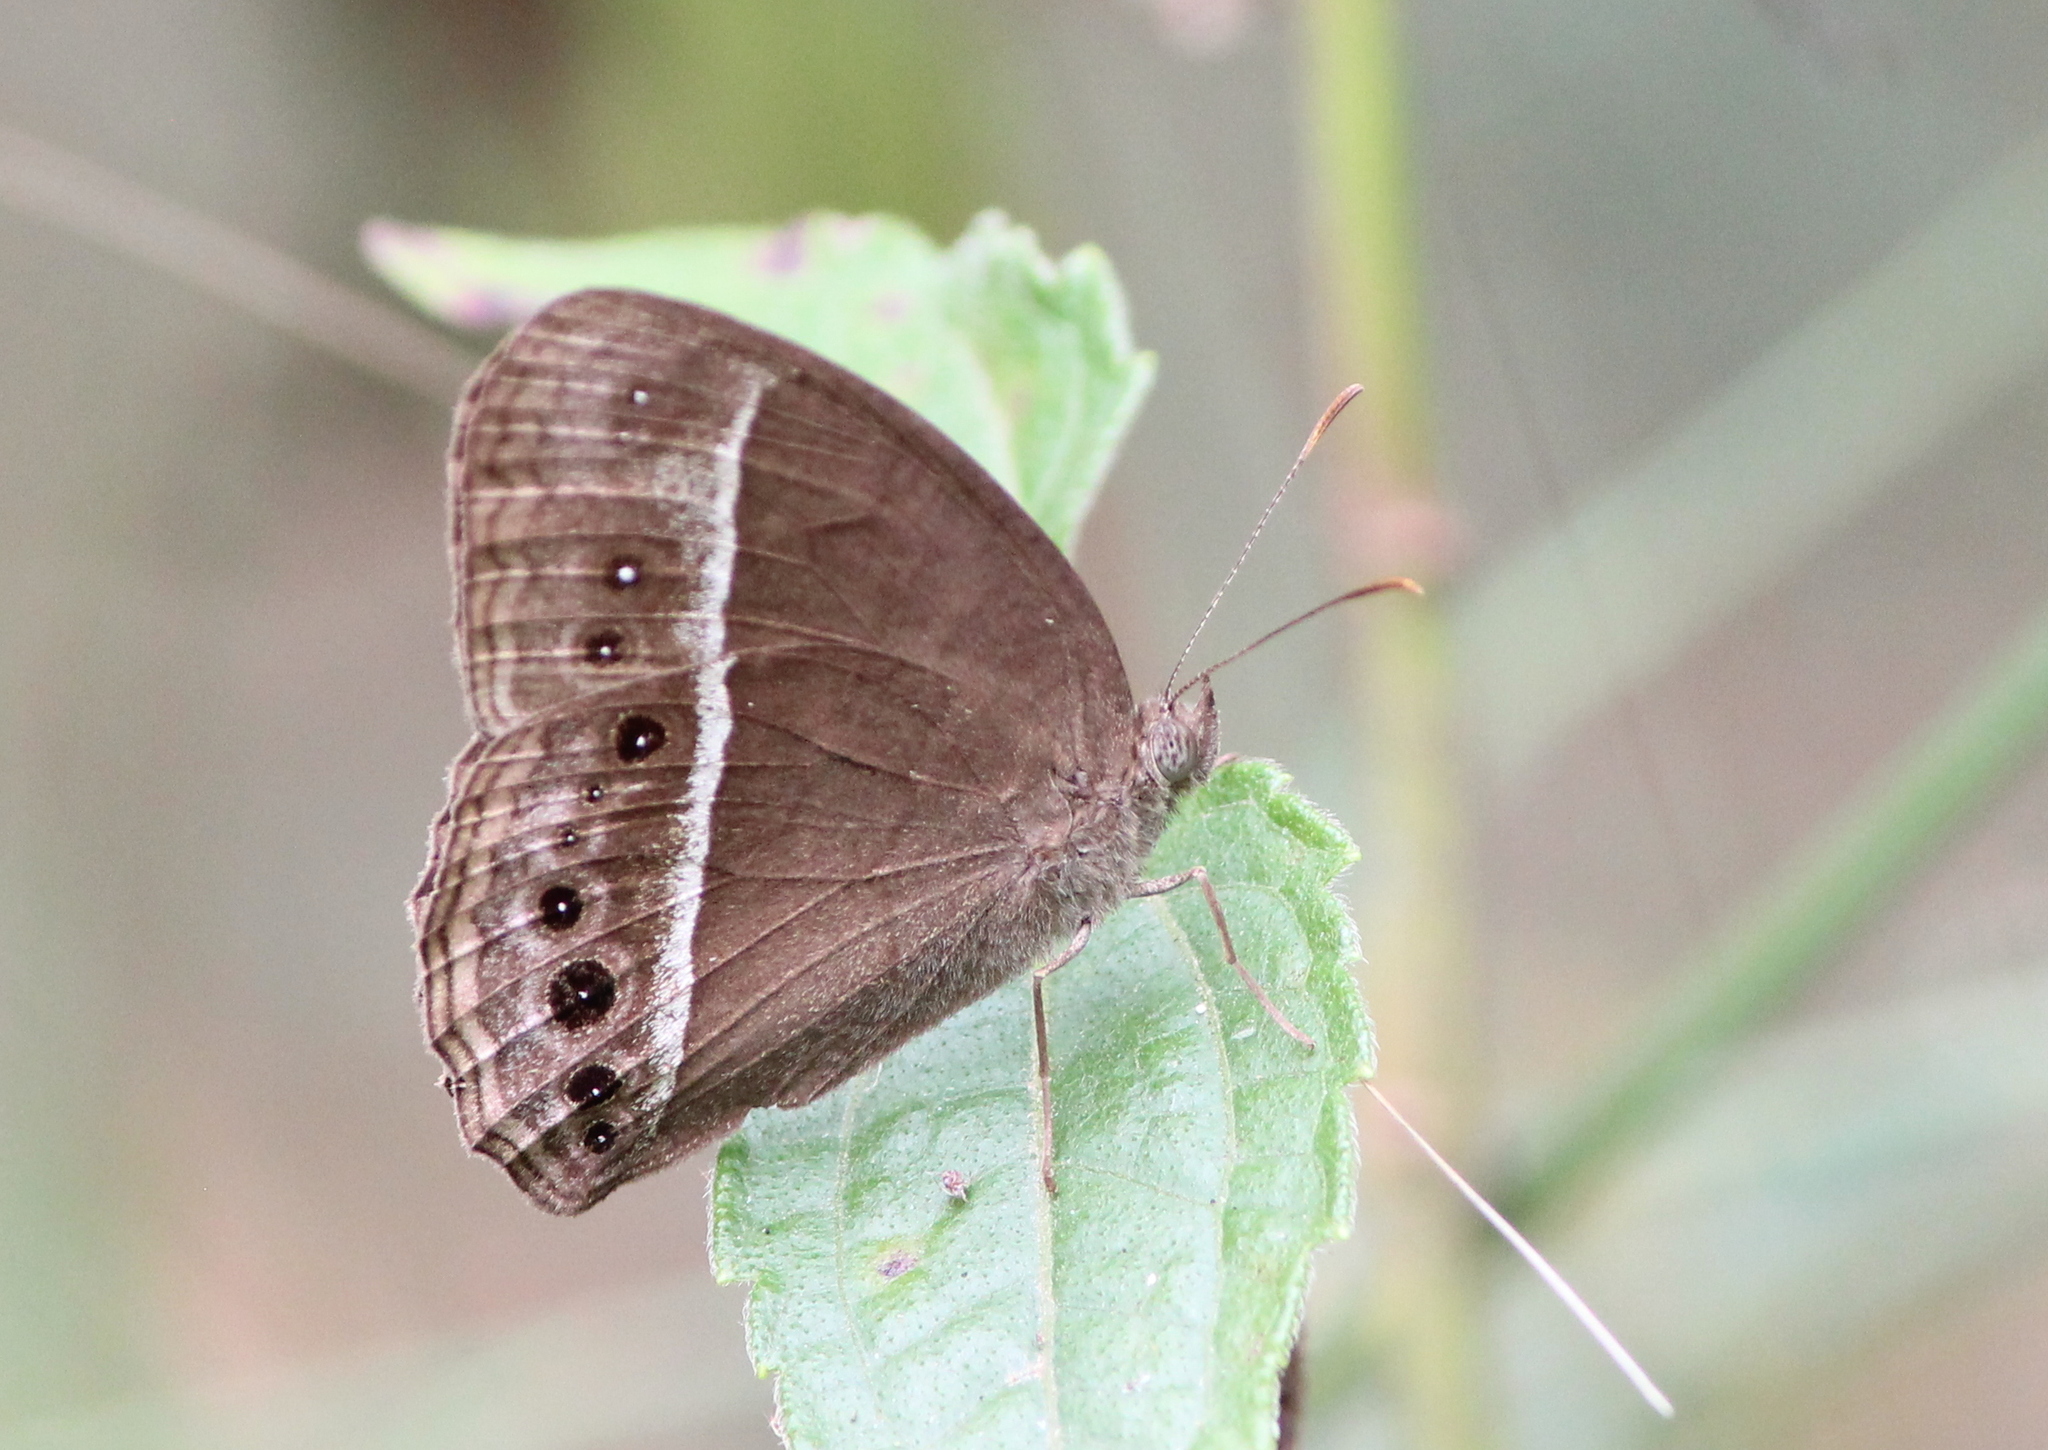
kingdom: Animalia
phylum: Arthropoda
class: Insecta
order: Lepidoptera
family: Nymphalidae
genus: Mycalesis
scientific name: Mycalesis mineus
